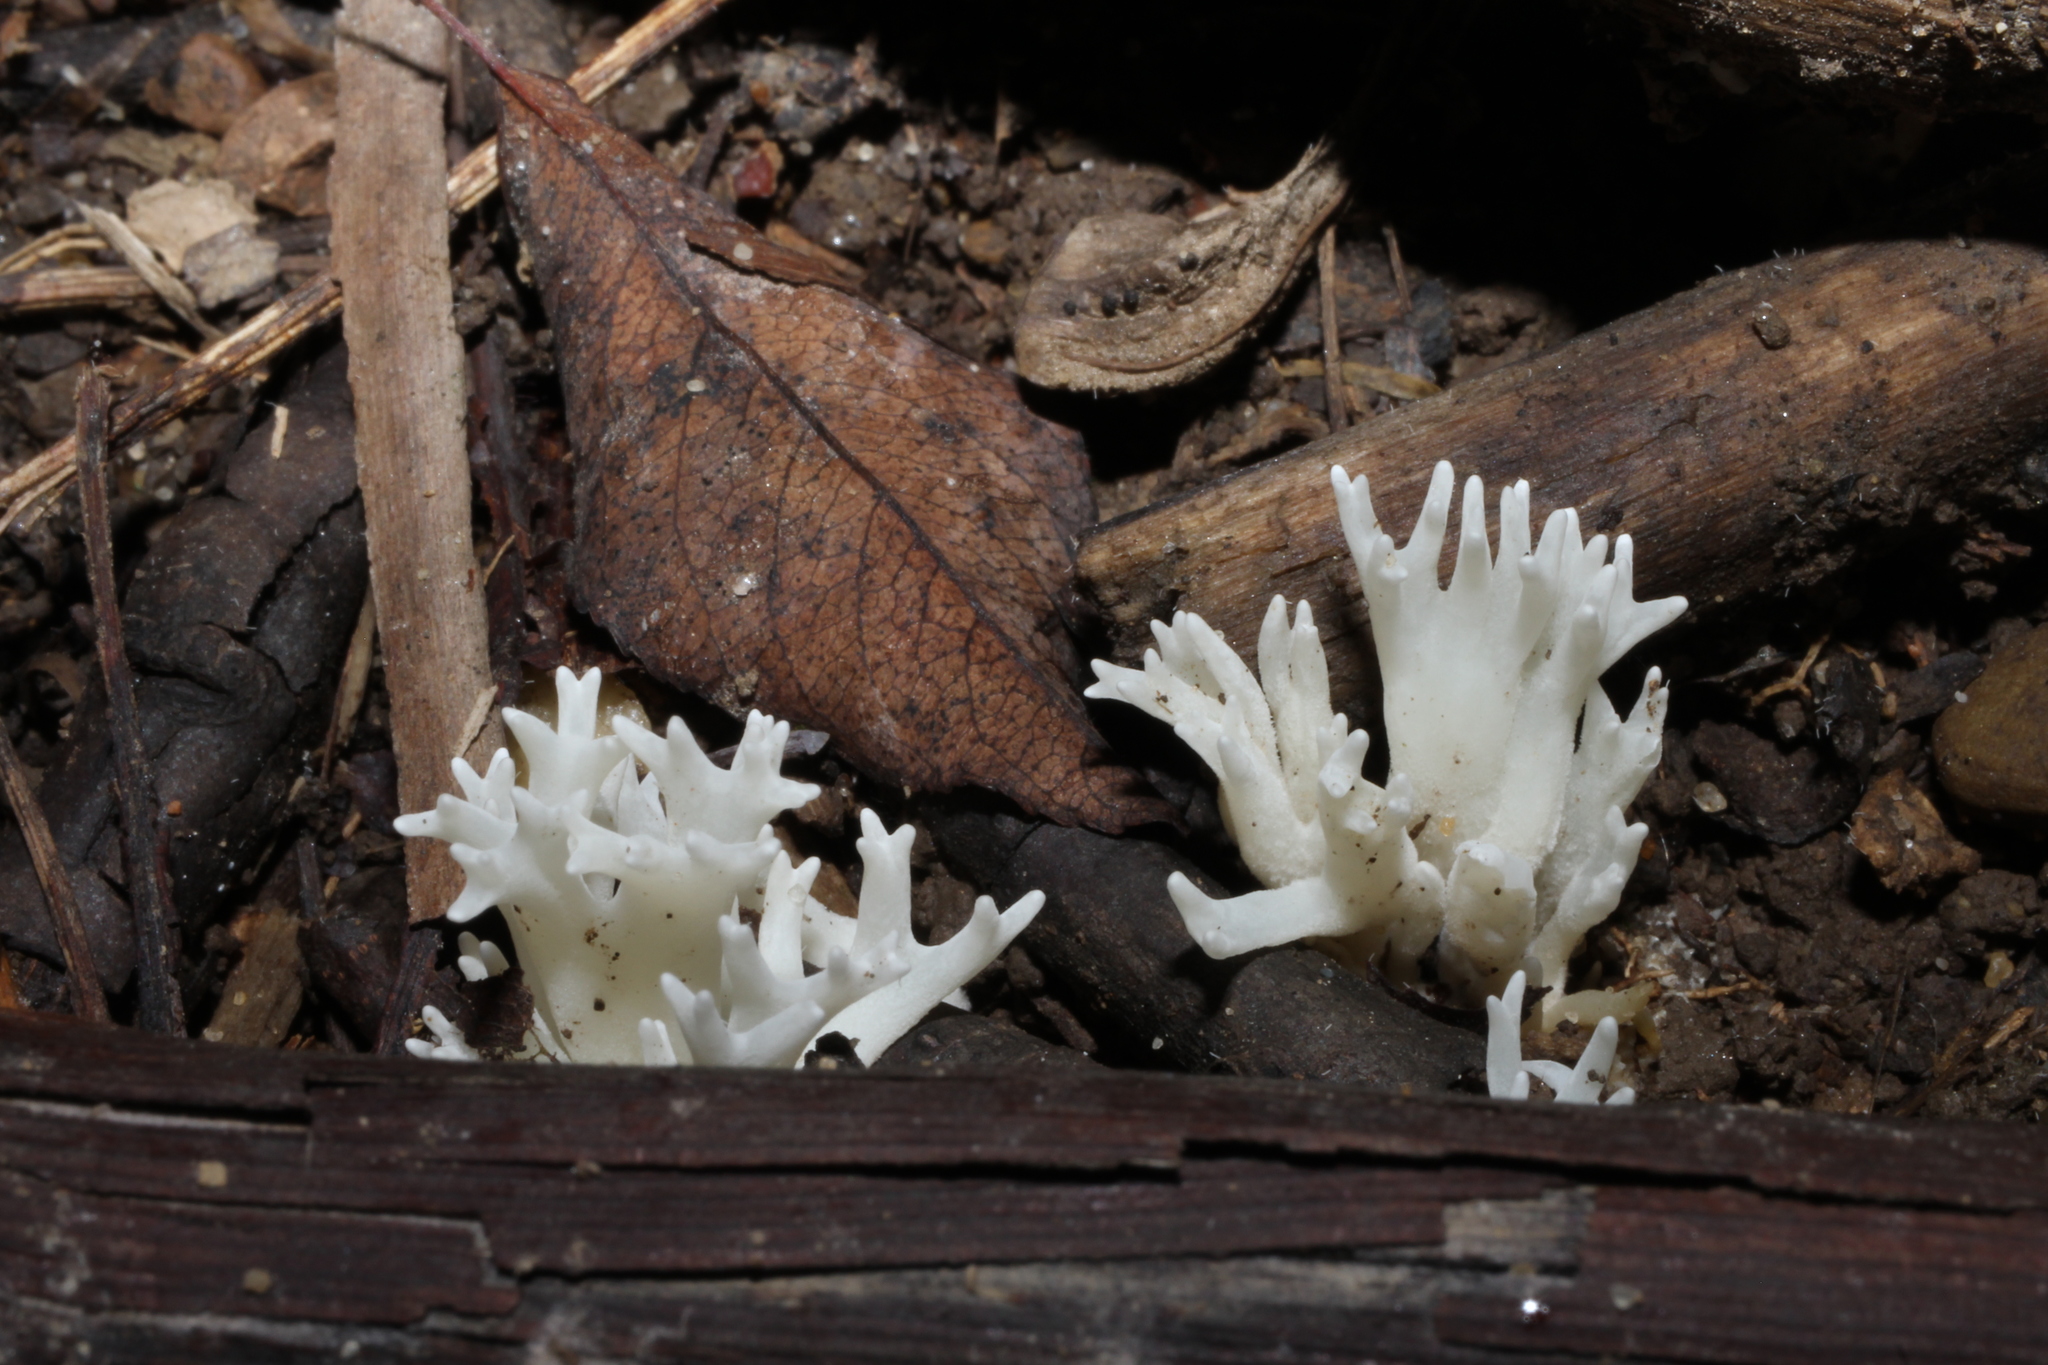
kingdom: Fungi
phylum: Basidiomycota
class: Agaricomycetes
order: Agaricales
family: Clavariaceae
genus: Ramariopsis
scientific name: Ramariopsis kunzei
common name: Ivory coral
